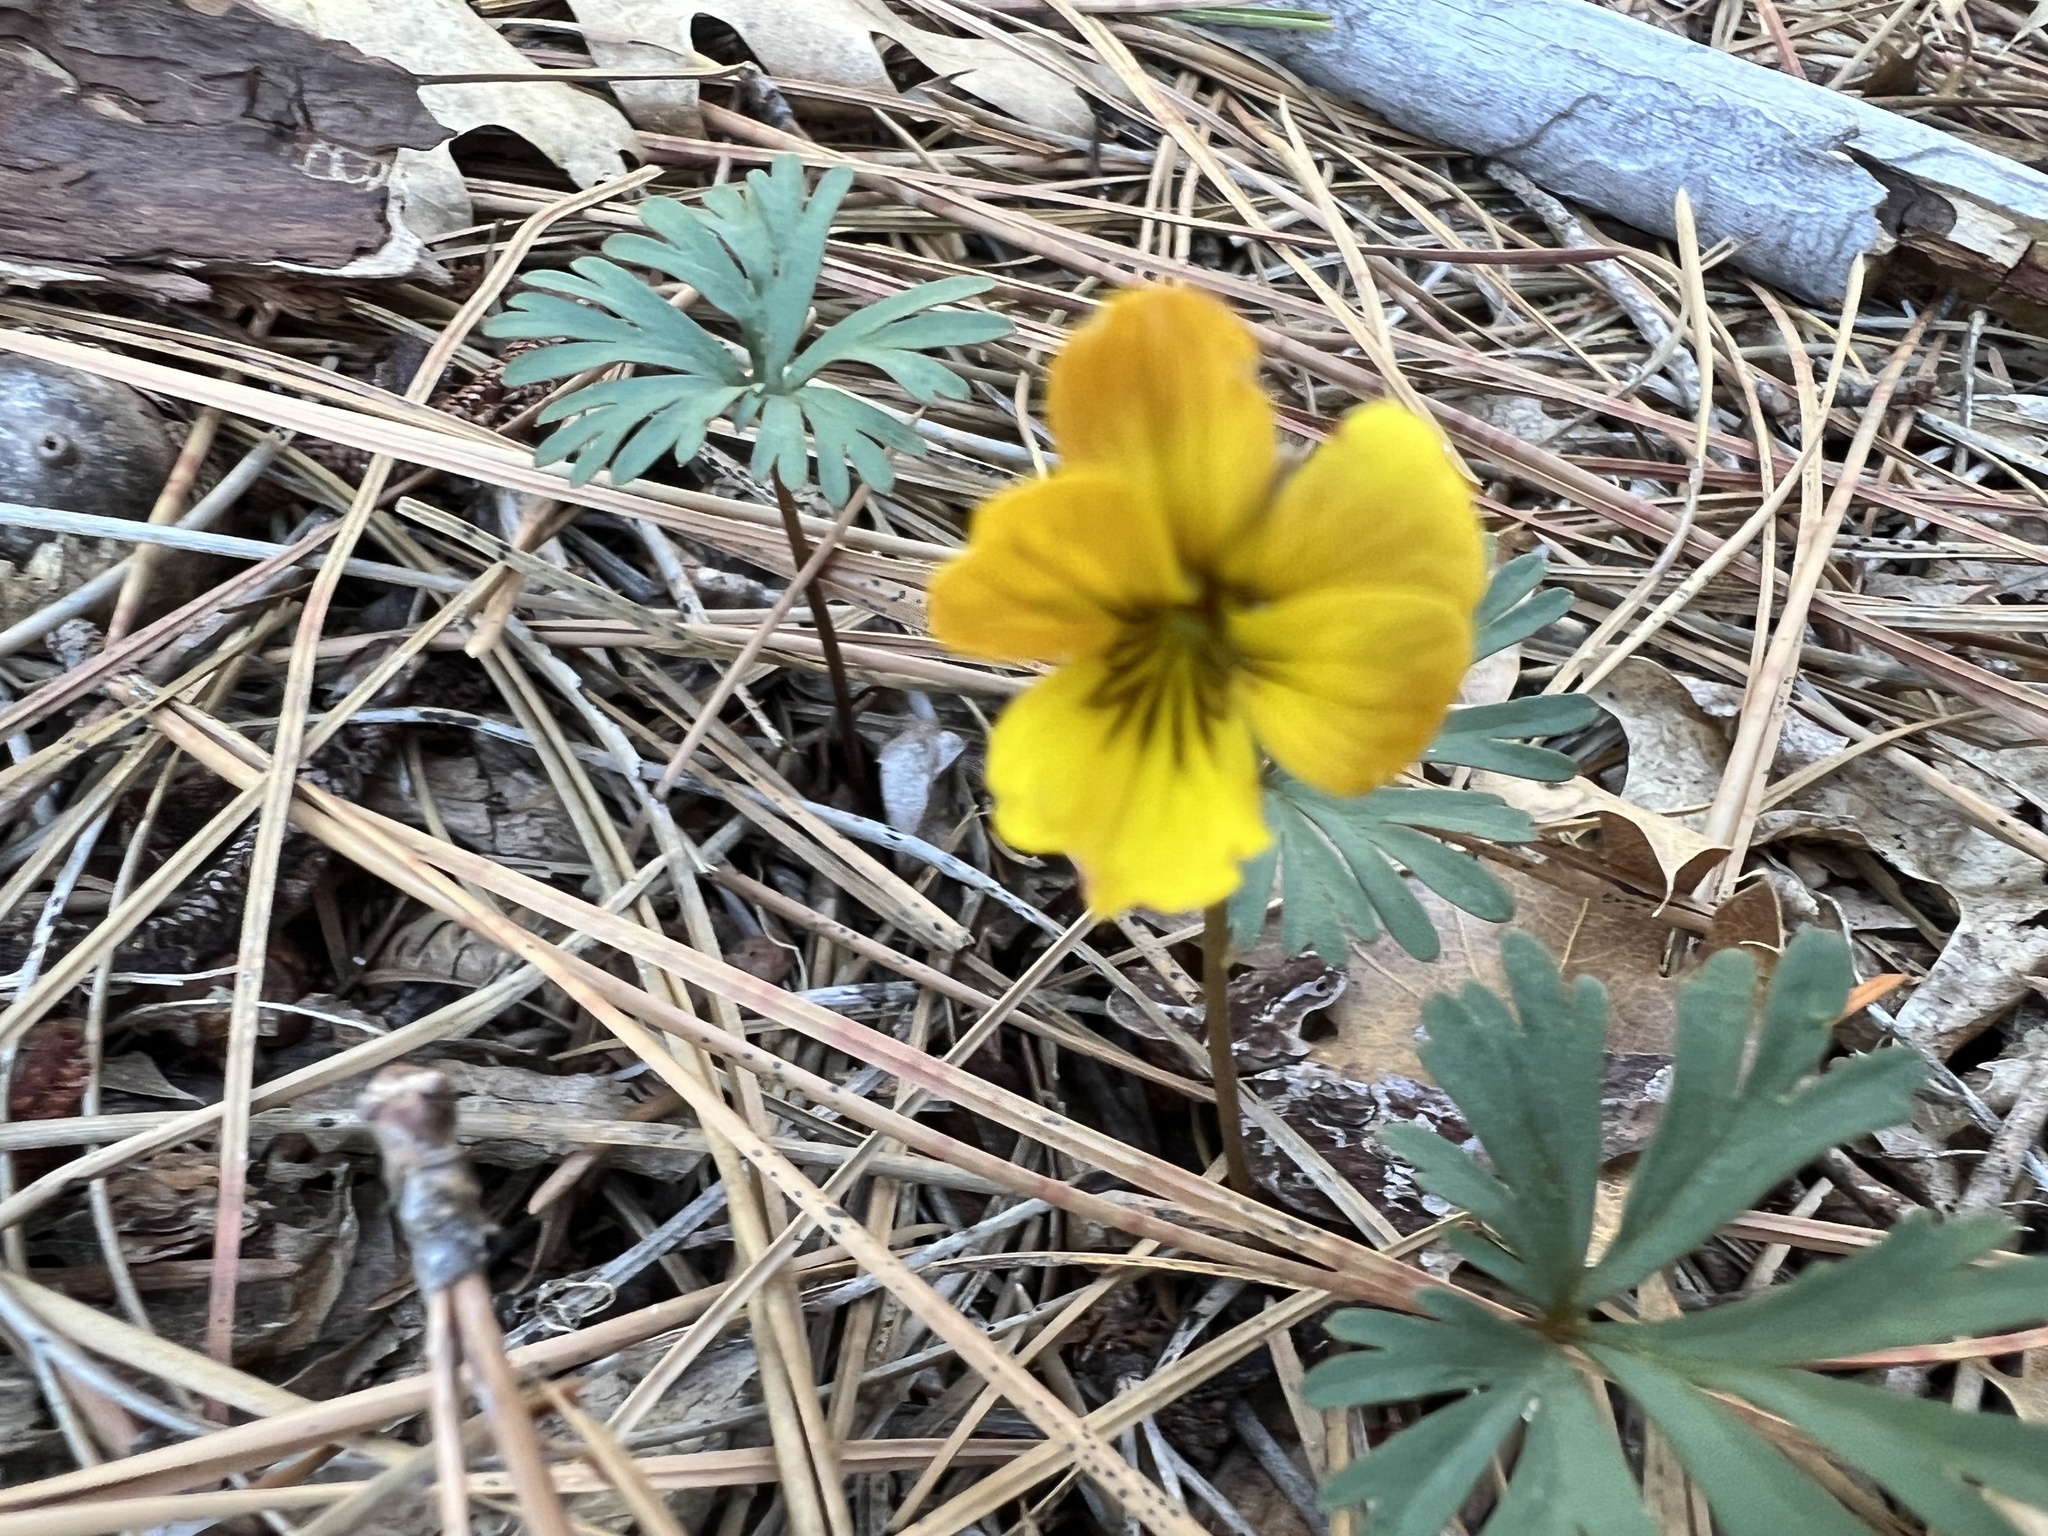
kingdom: Plantae
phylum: Tracheophyta
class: Magnoliopsida
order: Malpighiales
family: Violaceae
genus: Viola
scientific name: Viola sheltonii
